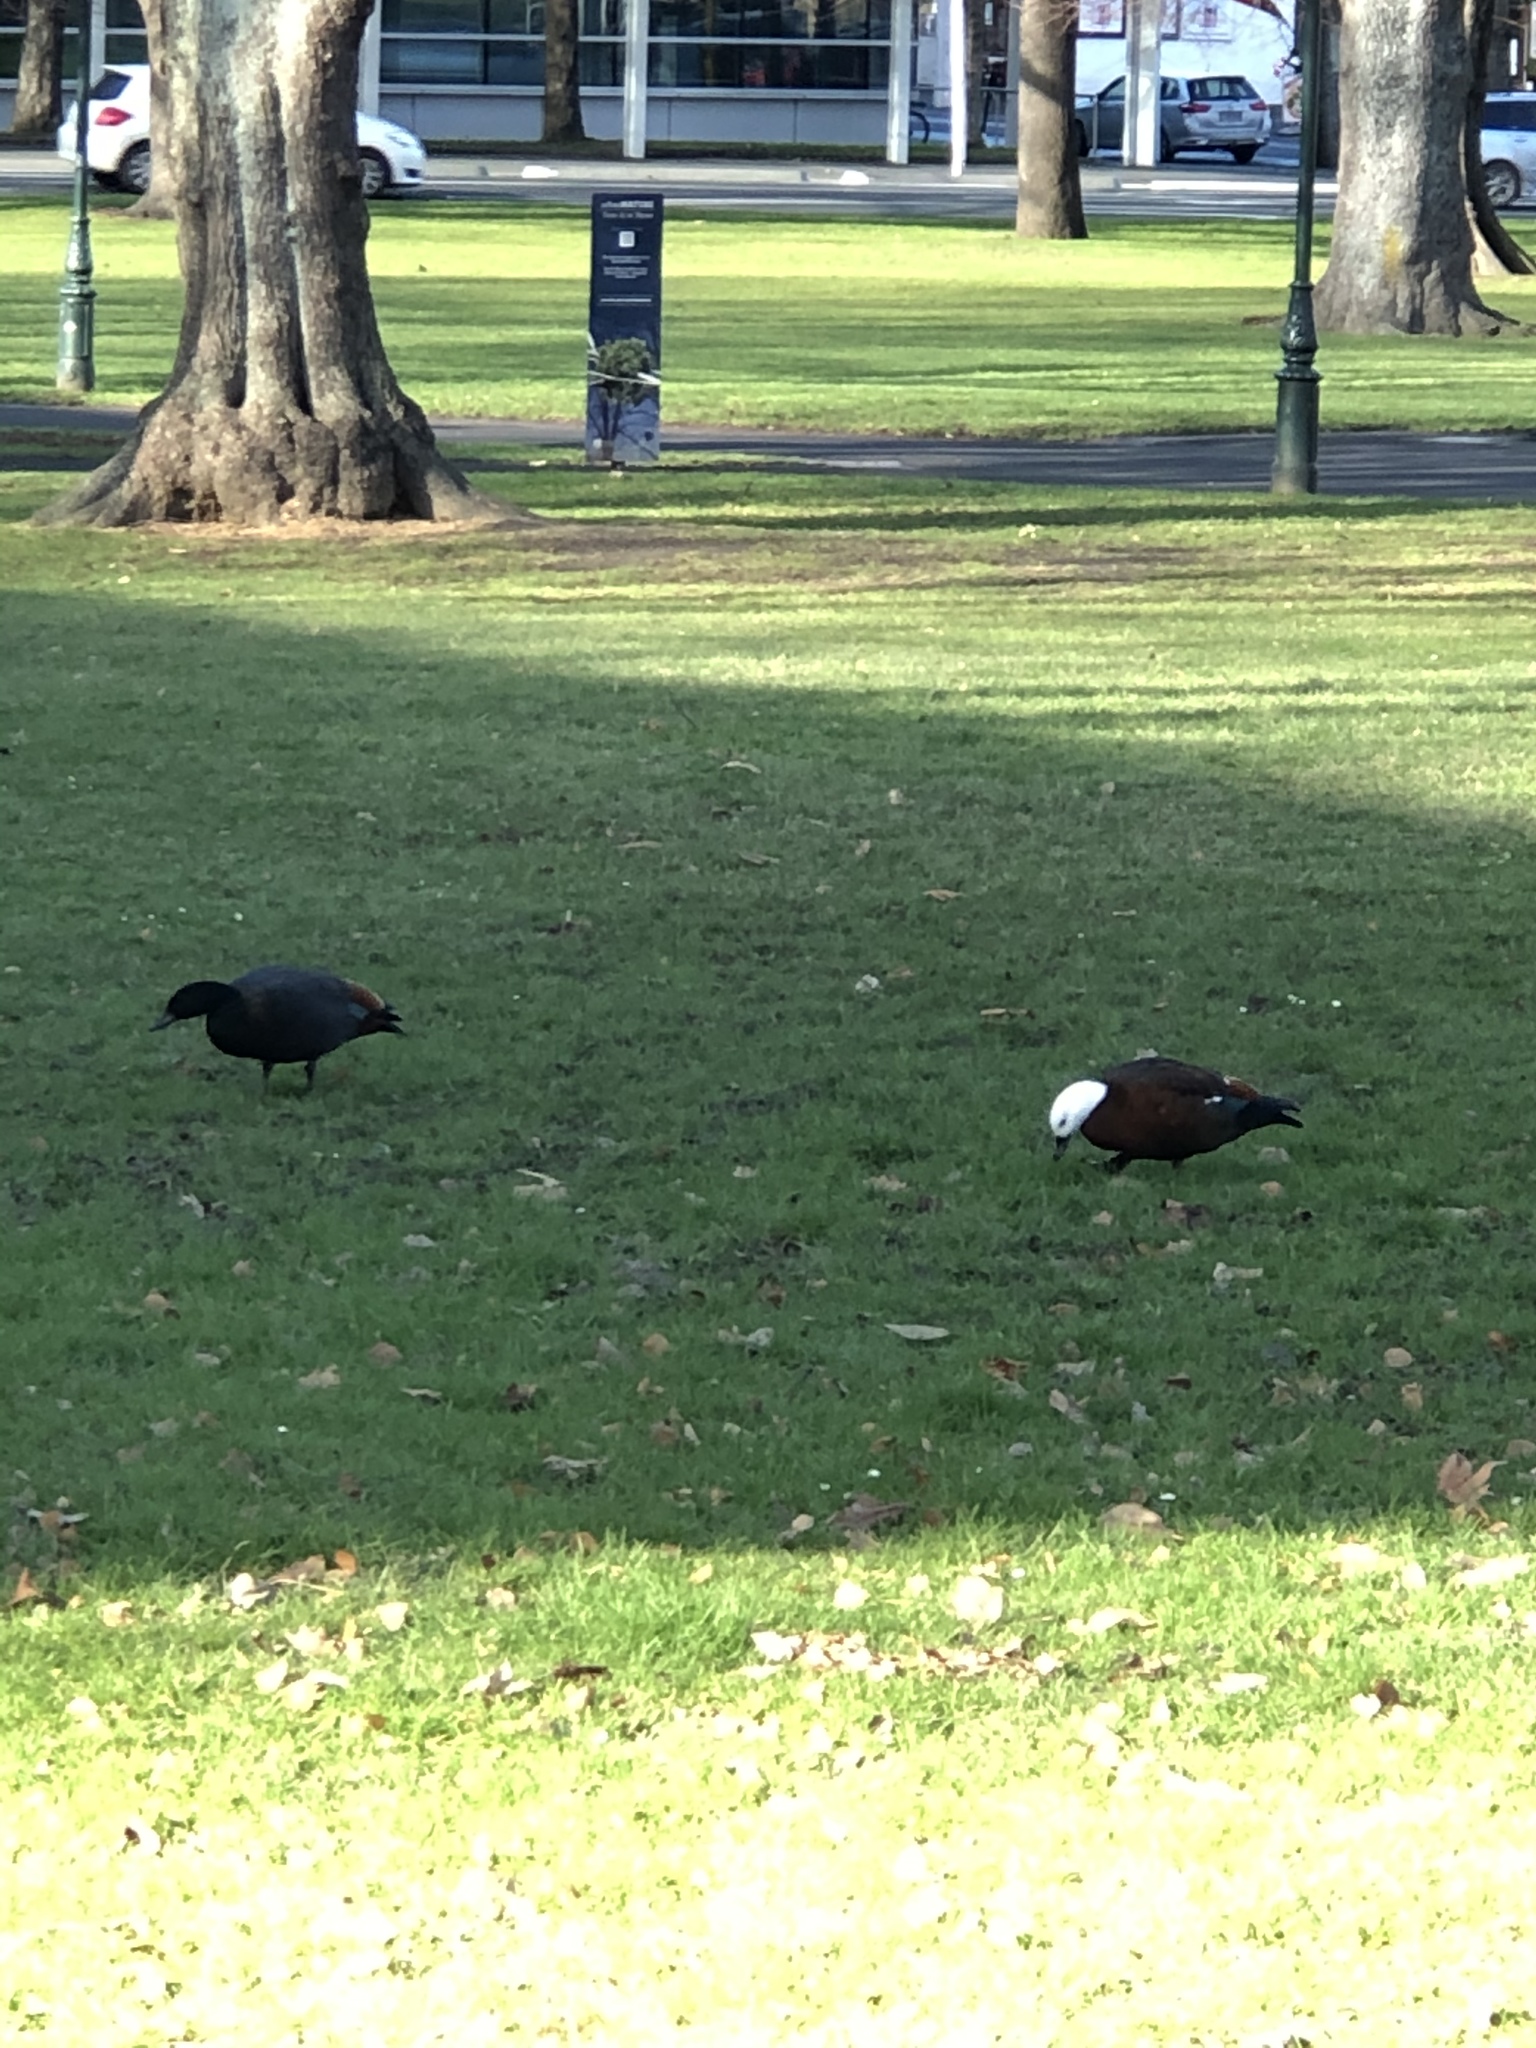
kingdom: Animalia
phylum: Chordata
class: Aves
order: Anseriformes
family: Anatidae
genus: Tadorna
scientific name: Tadorna variegata
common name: Paradise shelduck
